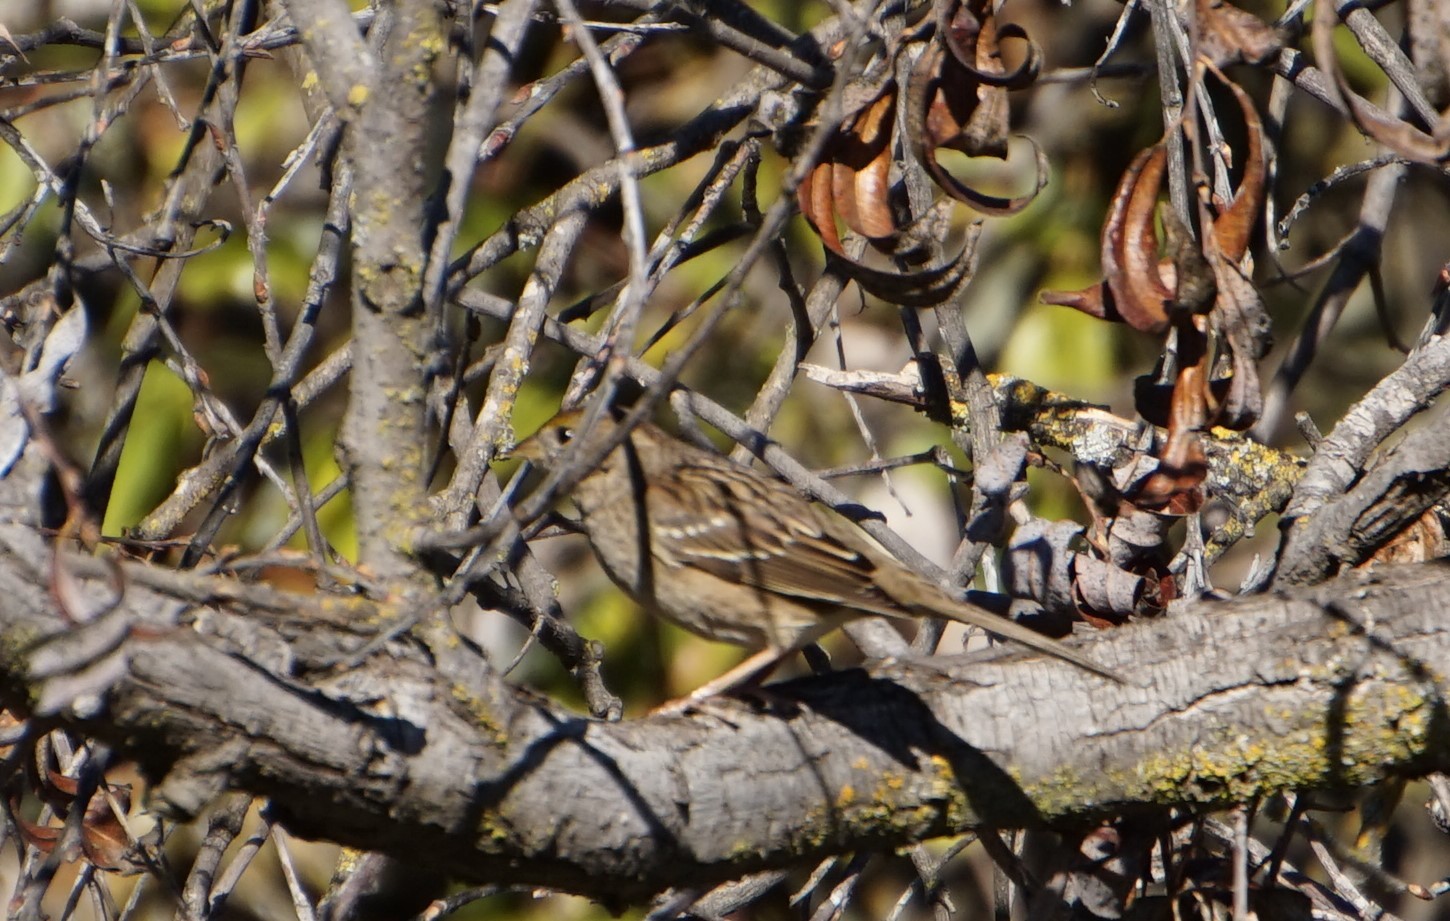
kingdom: Animalia
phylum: Chordata
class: Aves
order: Passeriformes
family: Passerellidae
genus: Zonotrichia
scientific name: Zonotrichia atricapilla
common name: Golden-crowned sparrow
